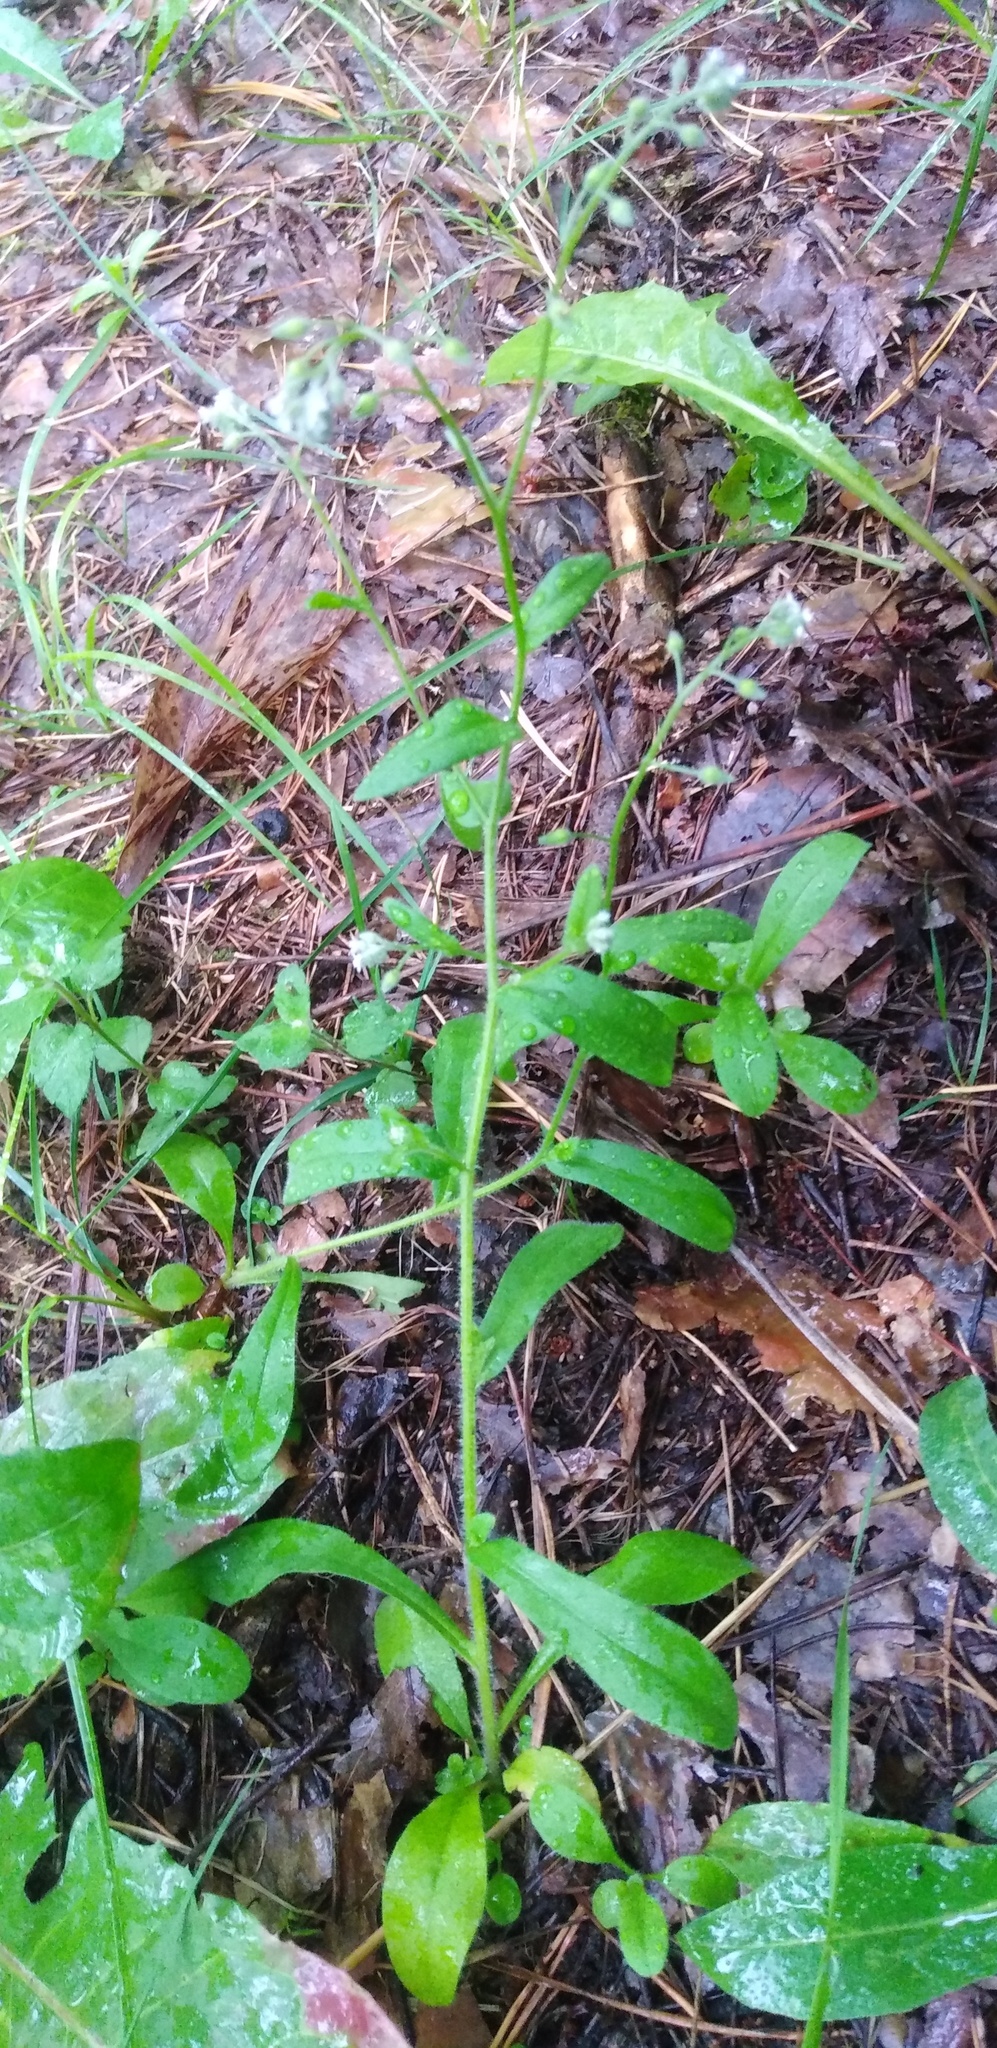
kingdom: Plantae
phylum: Tracheophyta
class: Magnoliopsida
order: Boraginales
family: Boraginaceae
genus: Myosotis
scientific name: Myosotis arvensis
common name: Field forget-me-not
